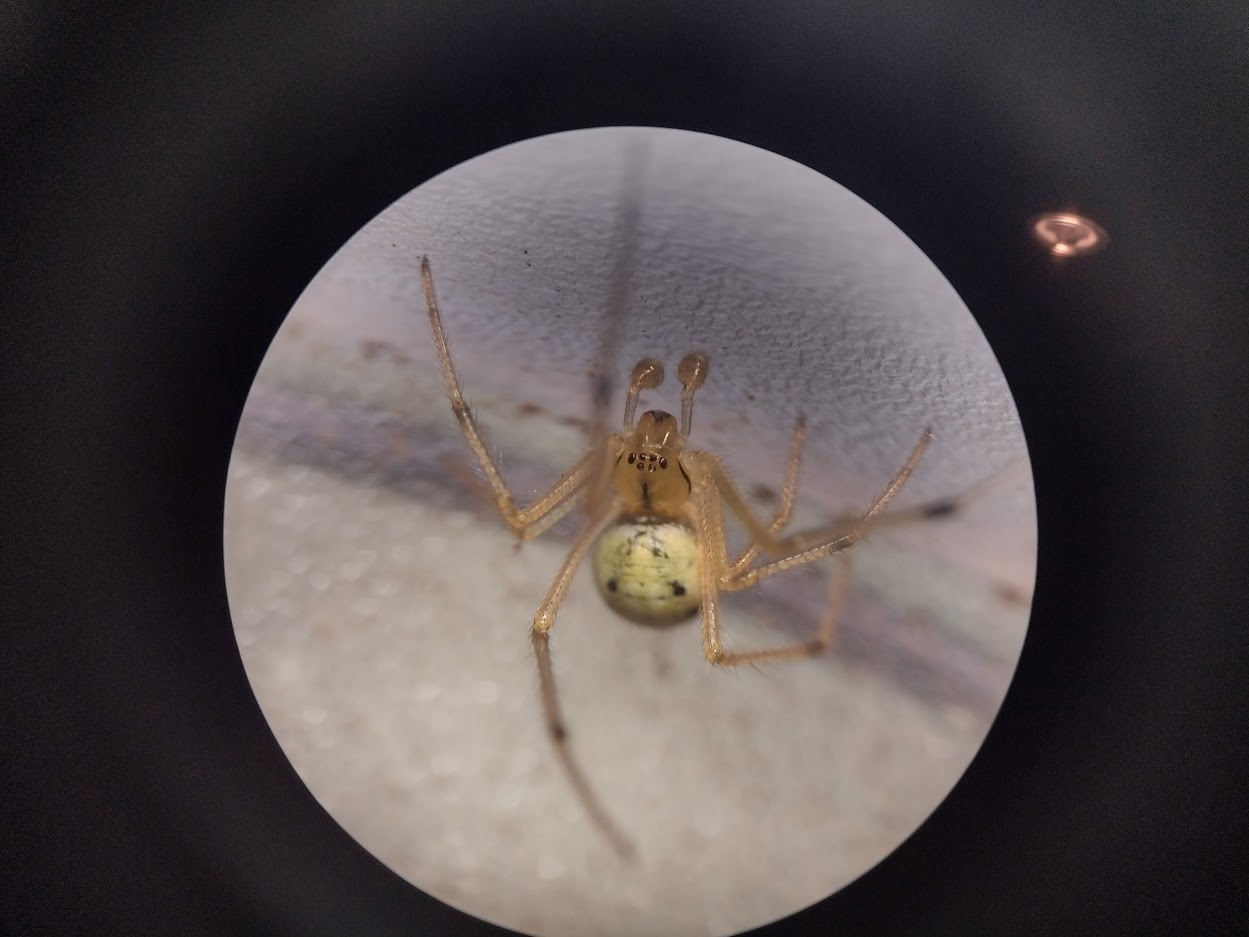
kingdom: Animalia
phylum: Arthropoda
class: Arachnida
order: Araneae
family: Theridiidae
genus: Enoplognatha
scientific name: Enoplognatha
